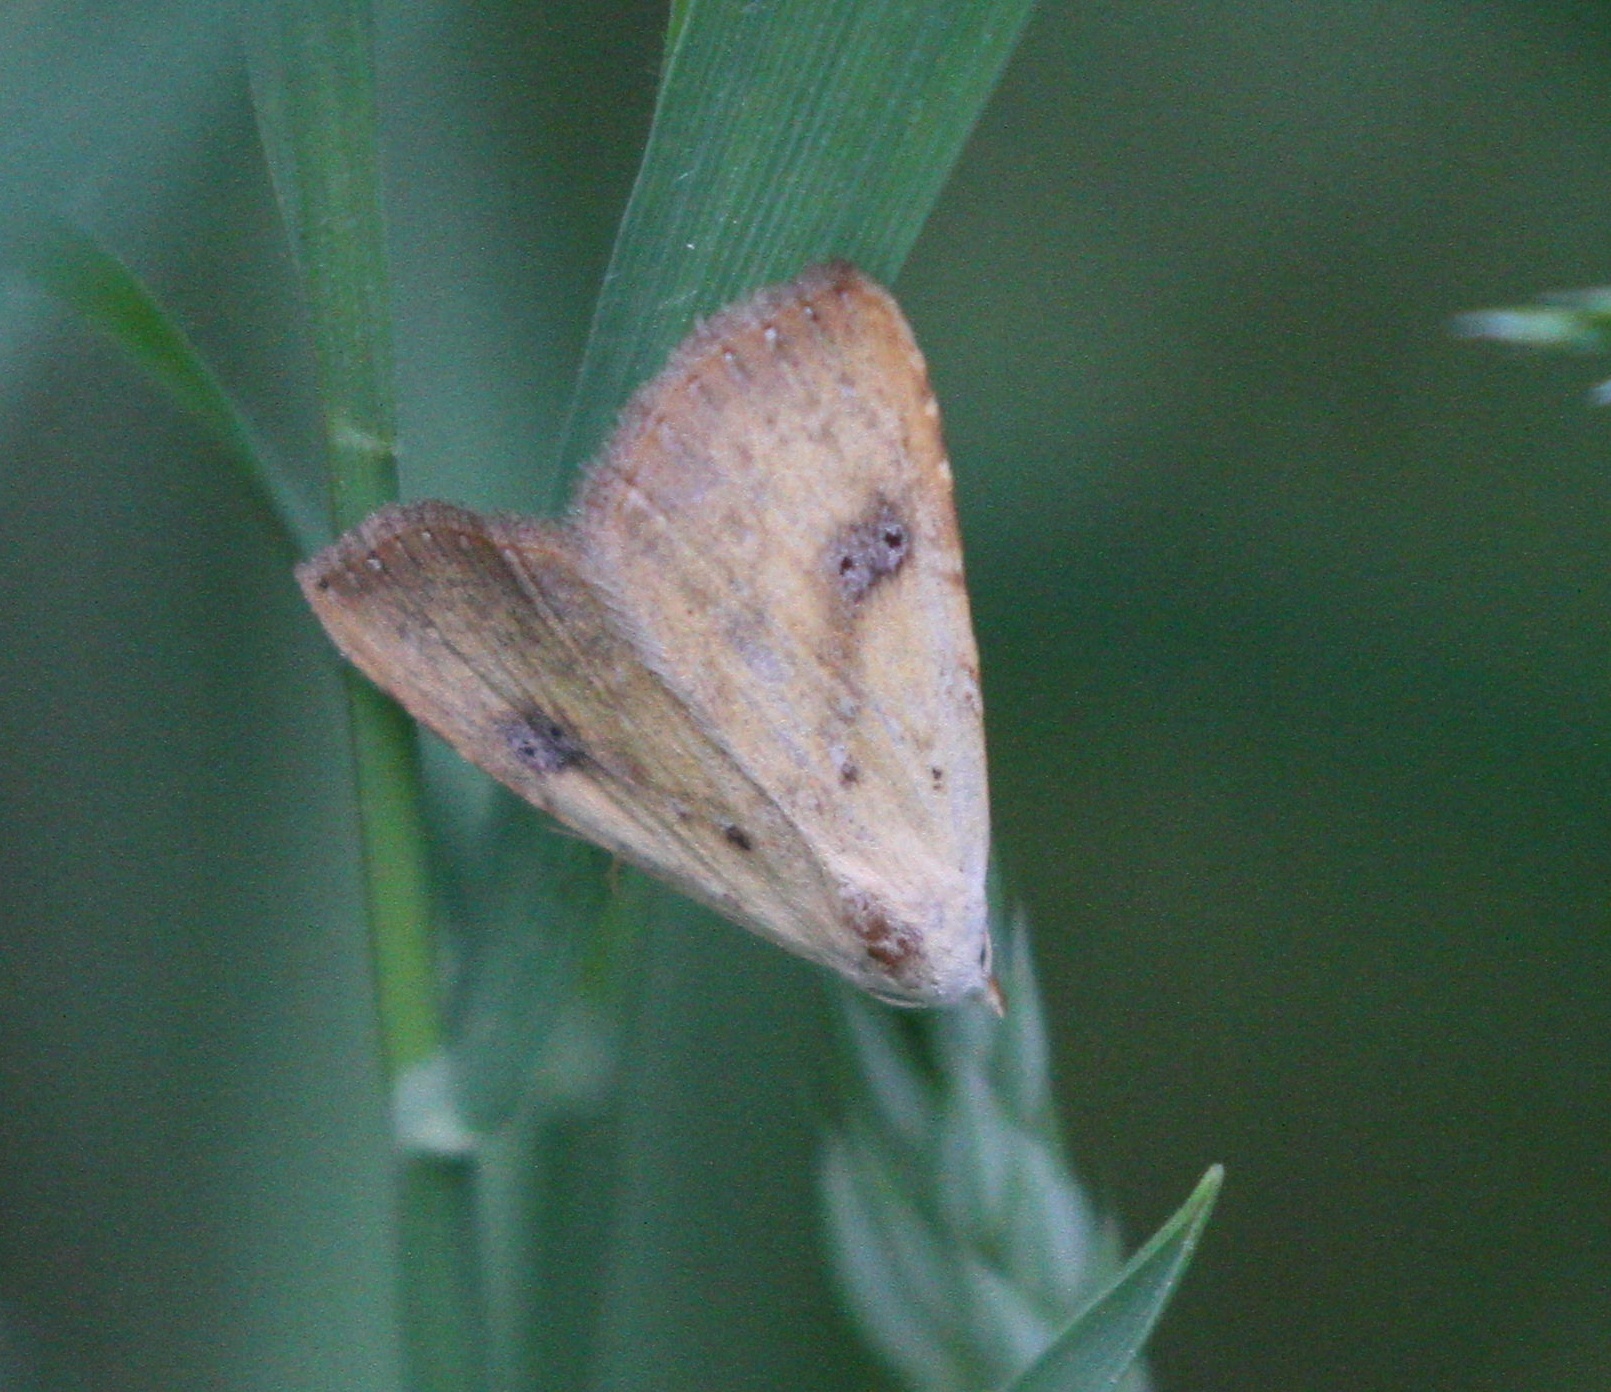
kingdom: Animalia
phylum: Arthropoda
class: Insecta
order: Lepidoptera
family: Erebidae
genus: Rivula
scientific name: Rivula sericealis
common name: Straw dot
